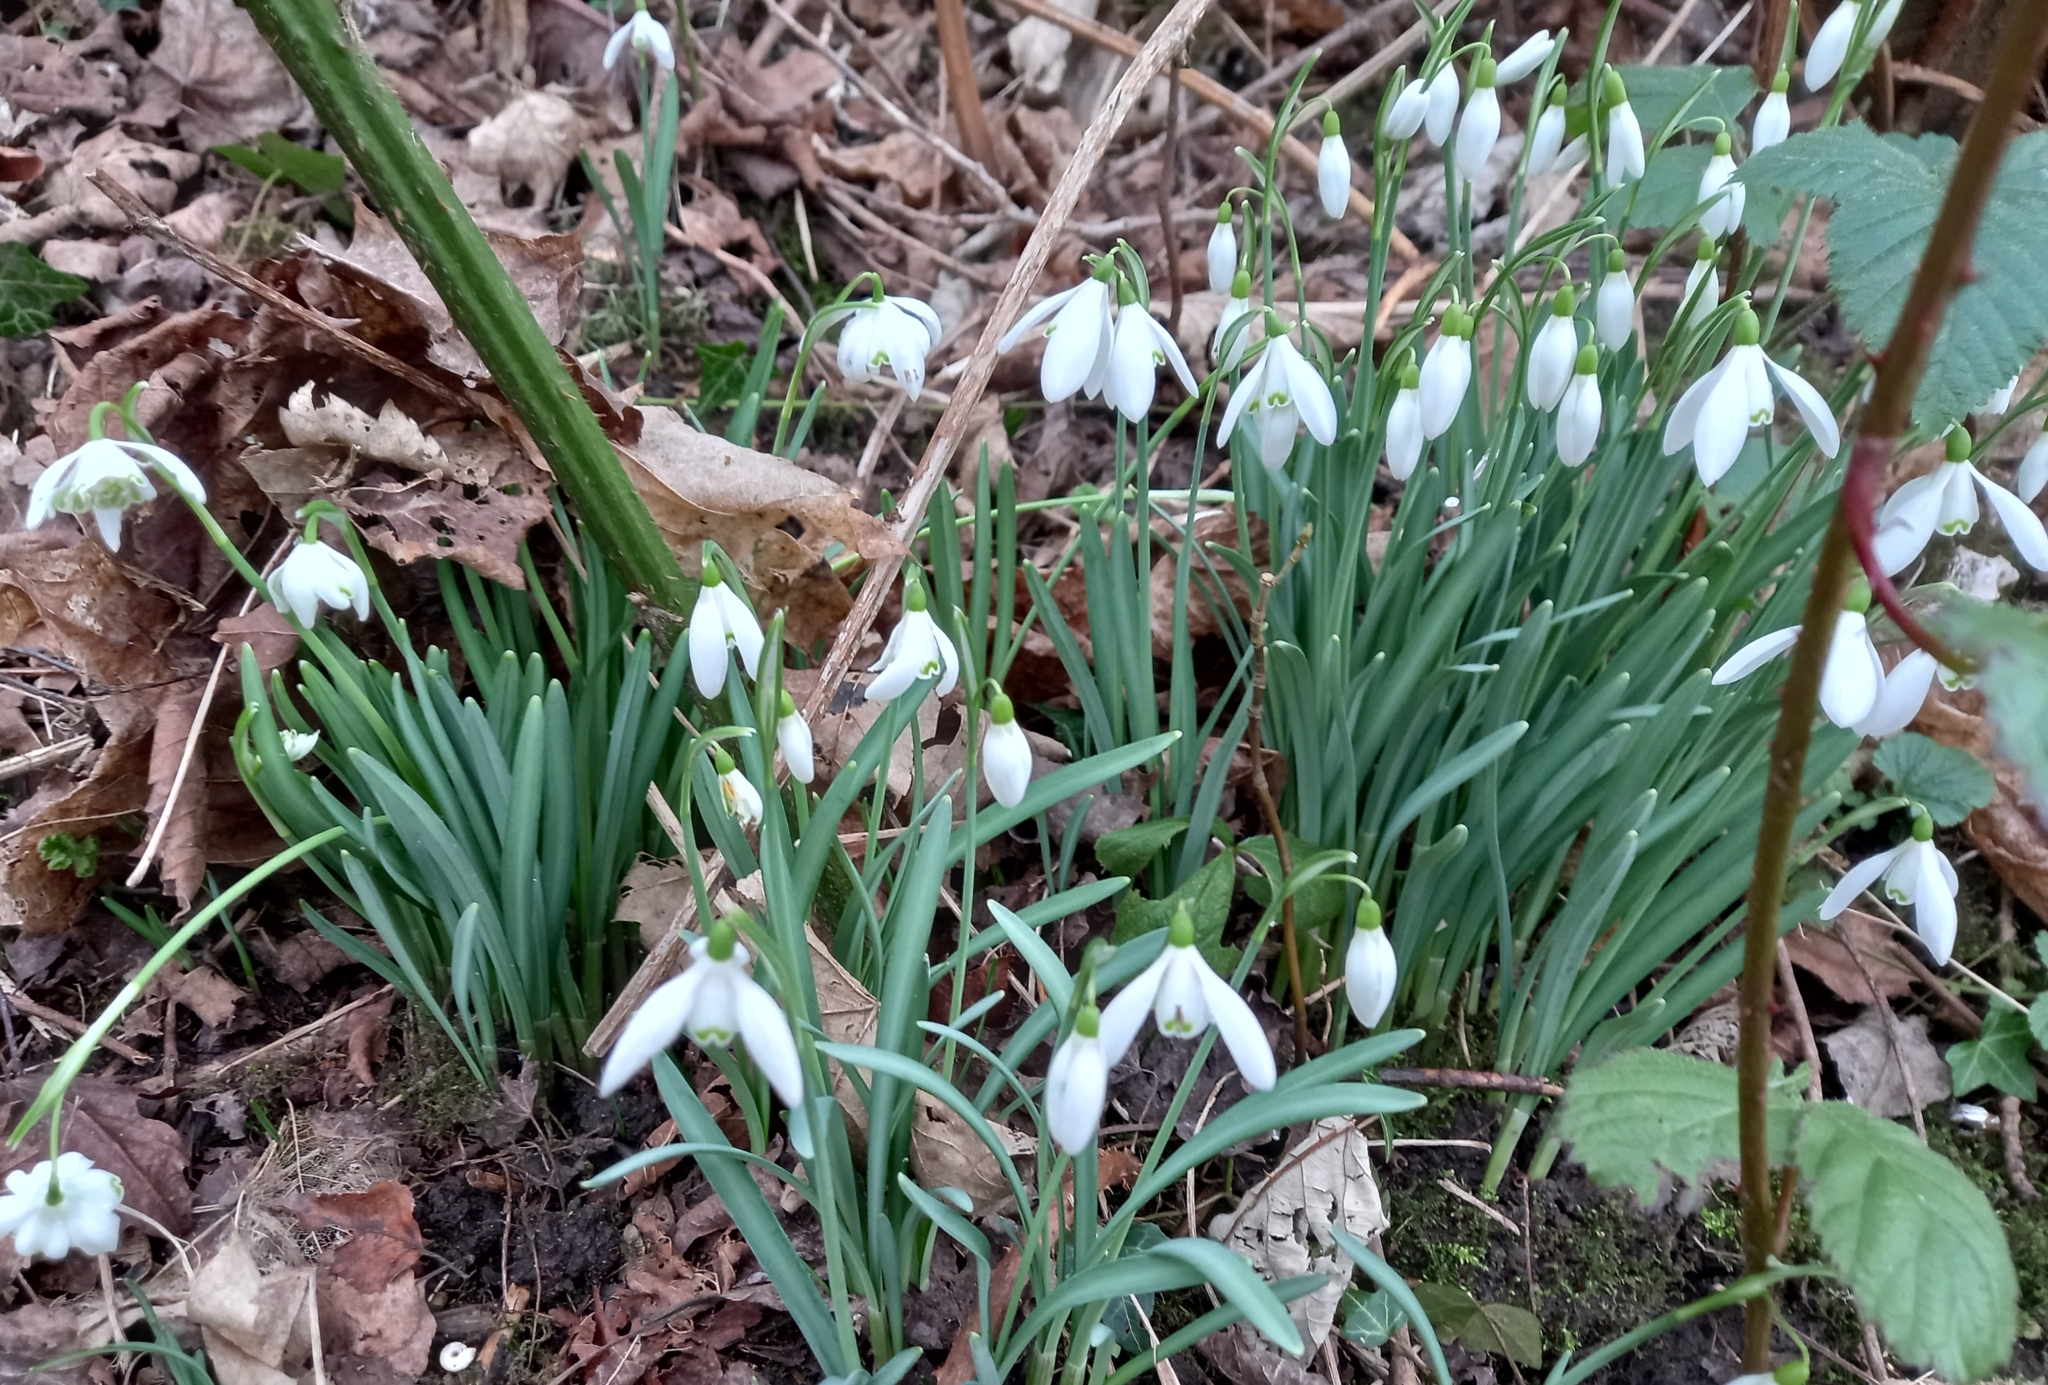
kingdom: Plantae
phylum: Tracheophyta
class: Liliopsida
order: Asparagales
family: Amaryllidaceae
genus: Galanthus
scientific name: Galanthus nivalis
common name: Snowdrop
